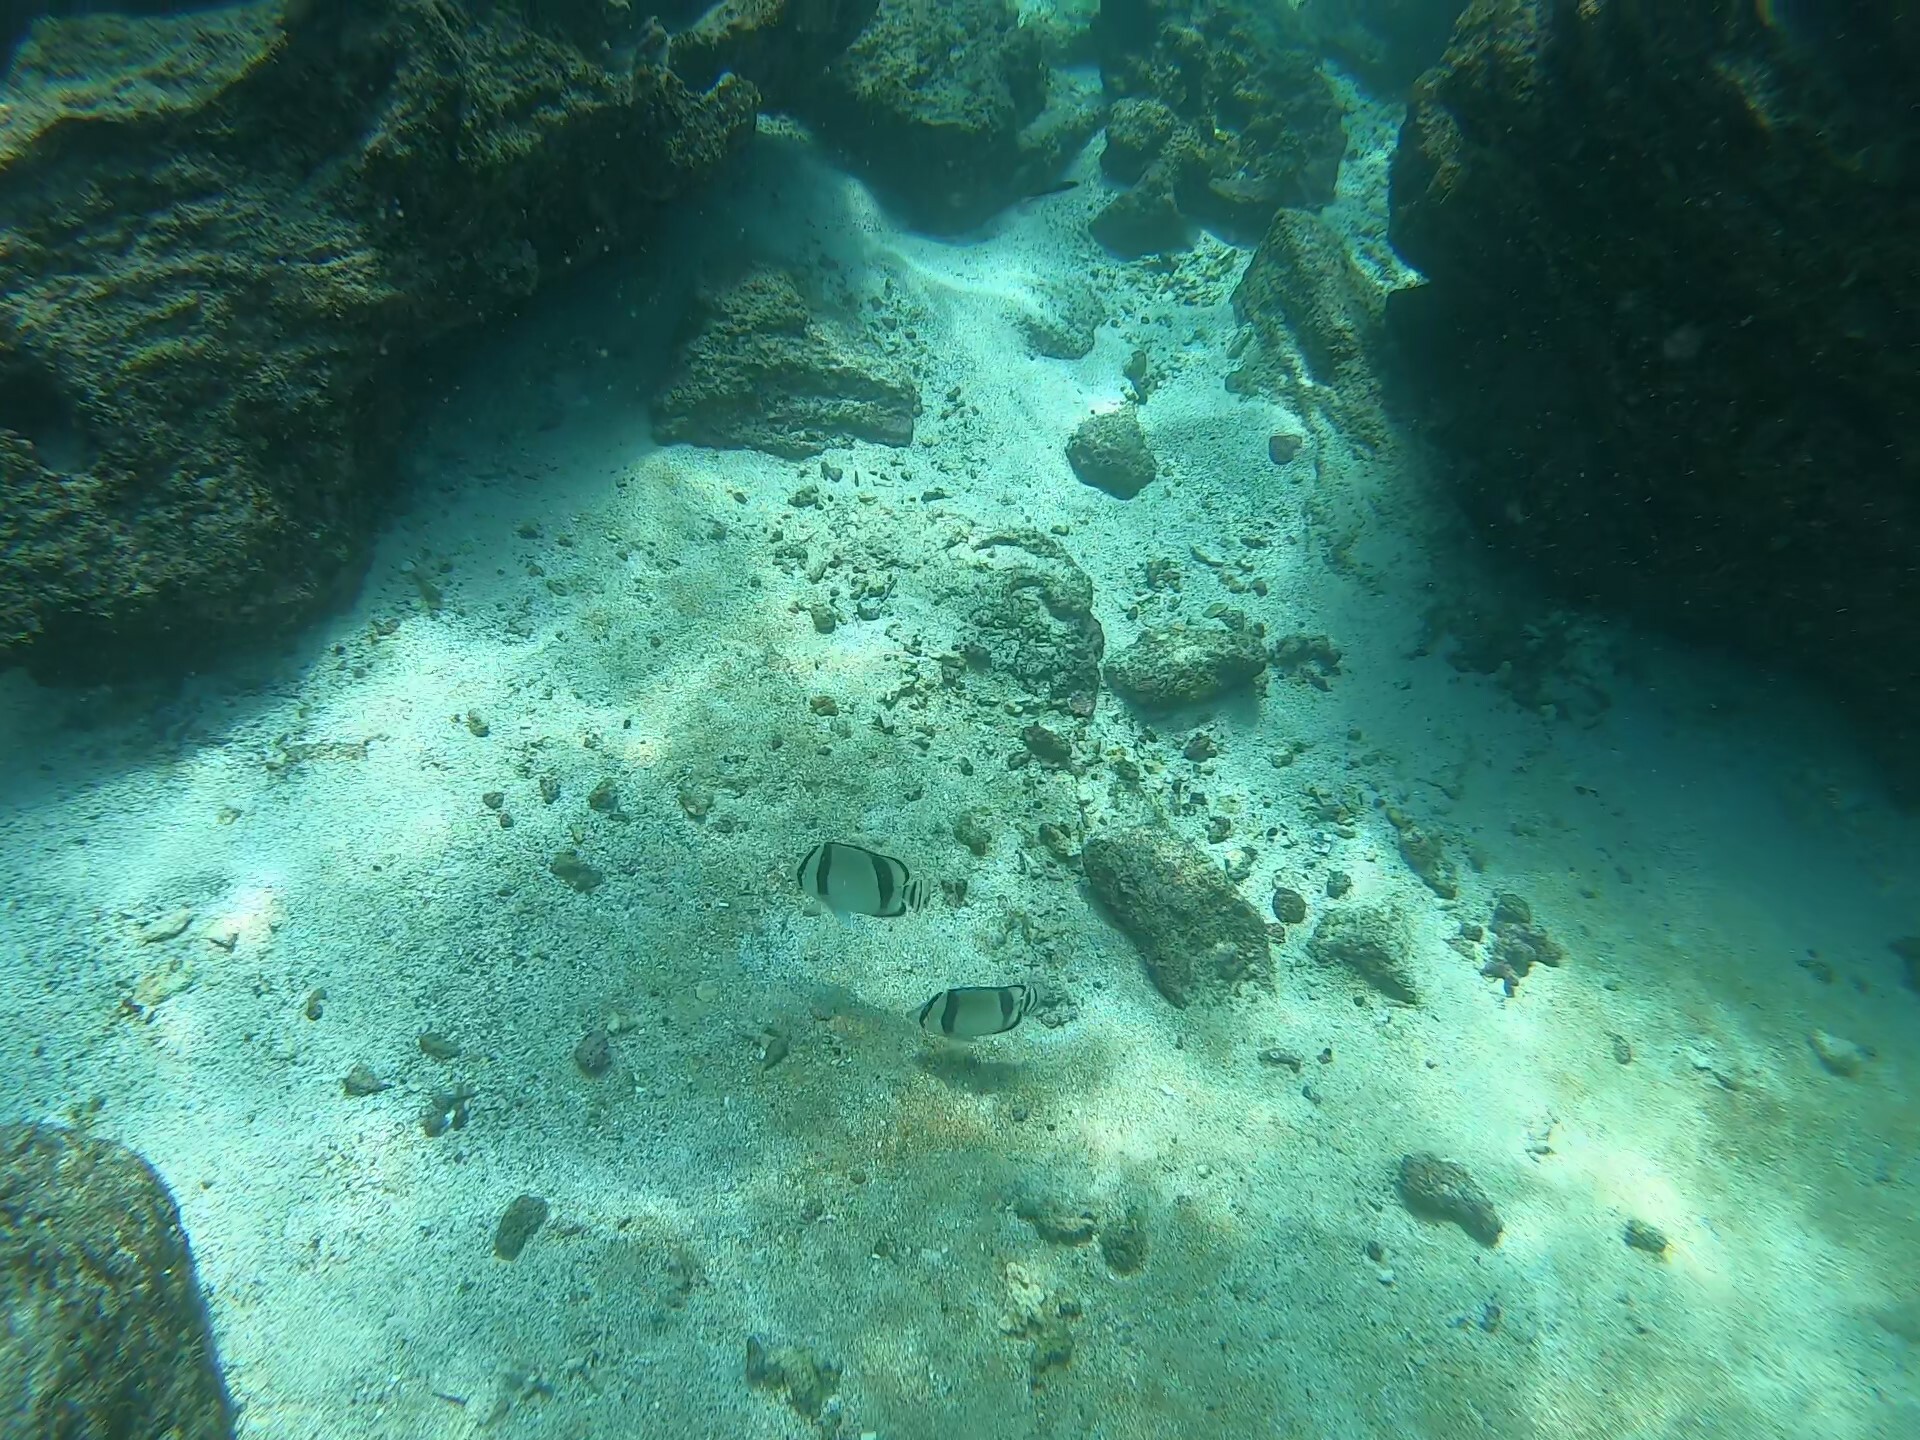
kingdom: Animalia
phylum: Chordata
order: Perciformes
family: Chaetodontidae
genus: Chaetodon
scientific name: Chaetodon humeralis
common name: Threebanded butterflyfish
